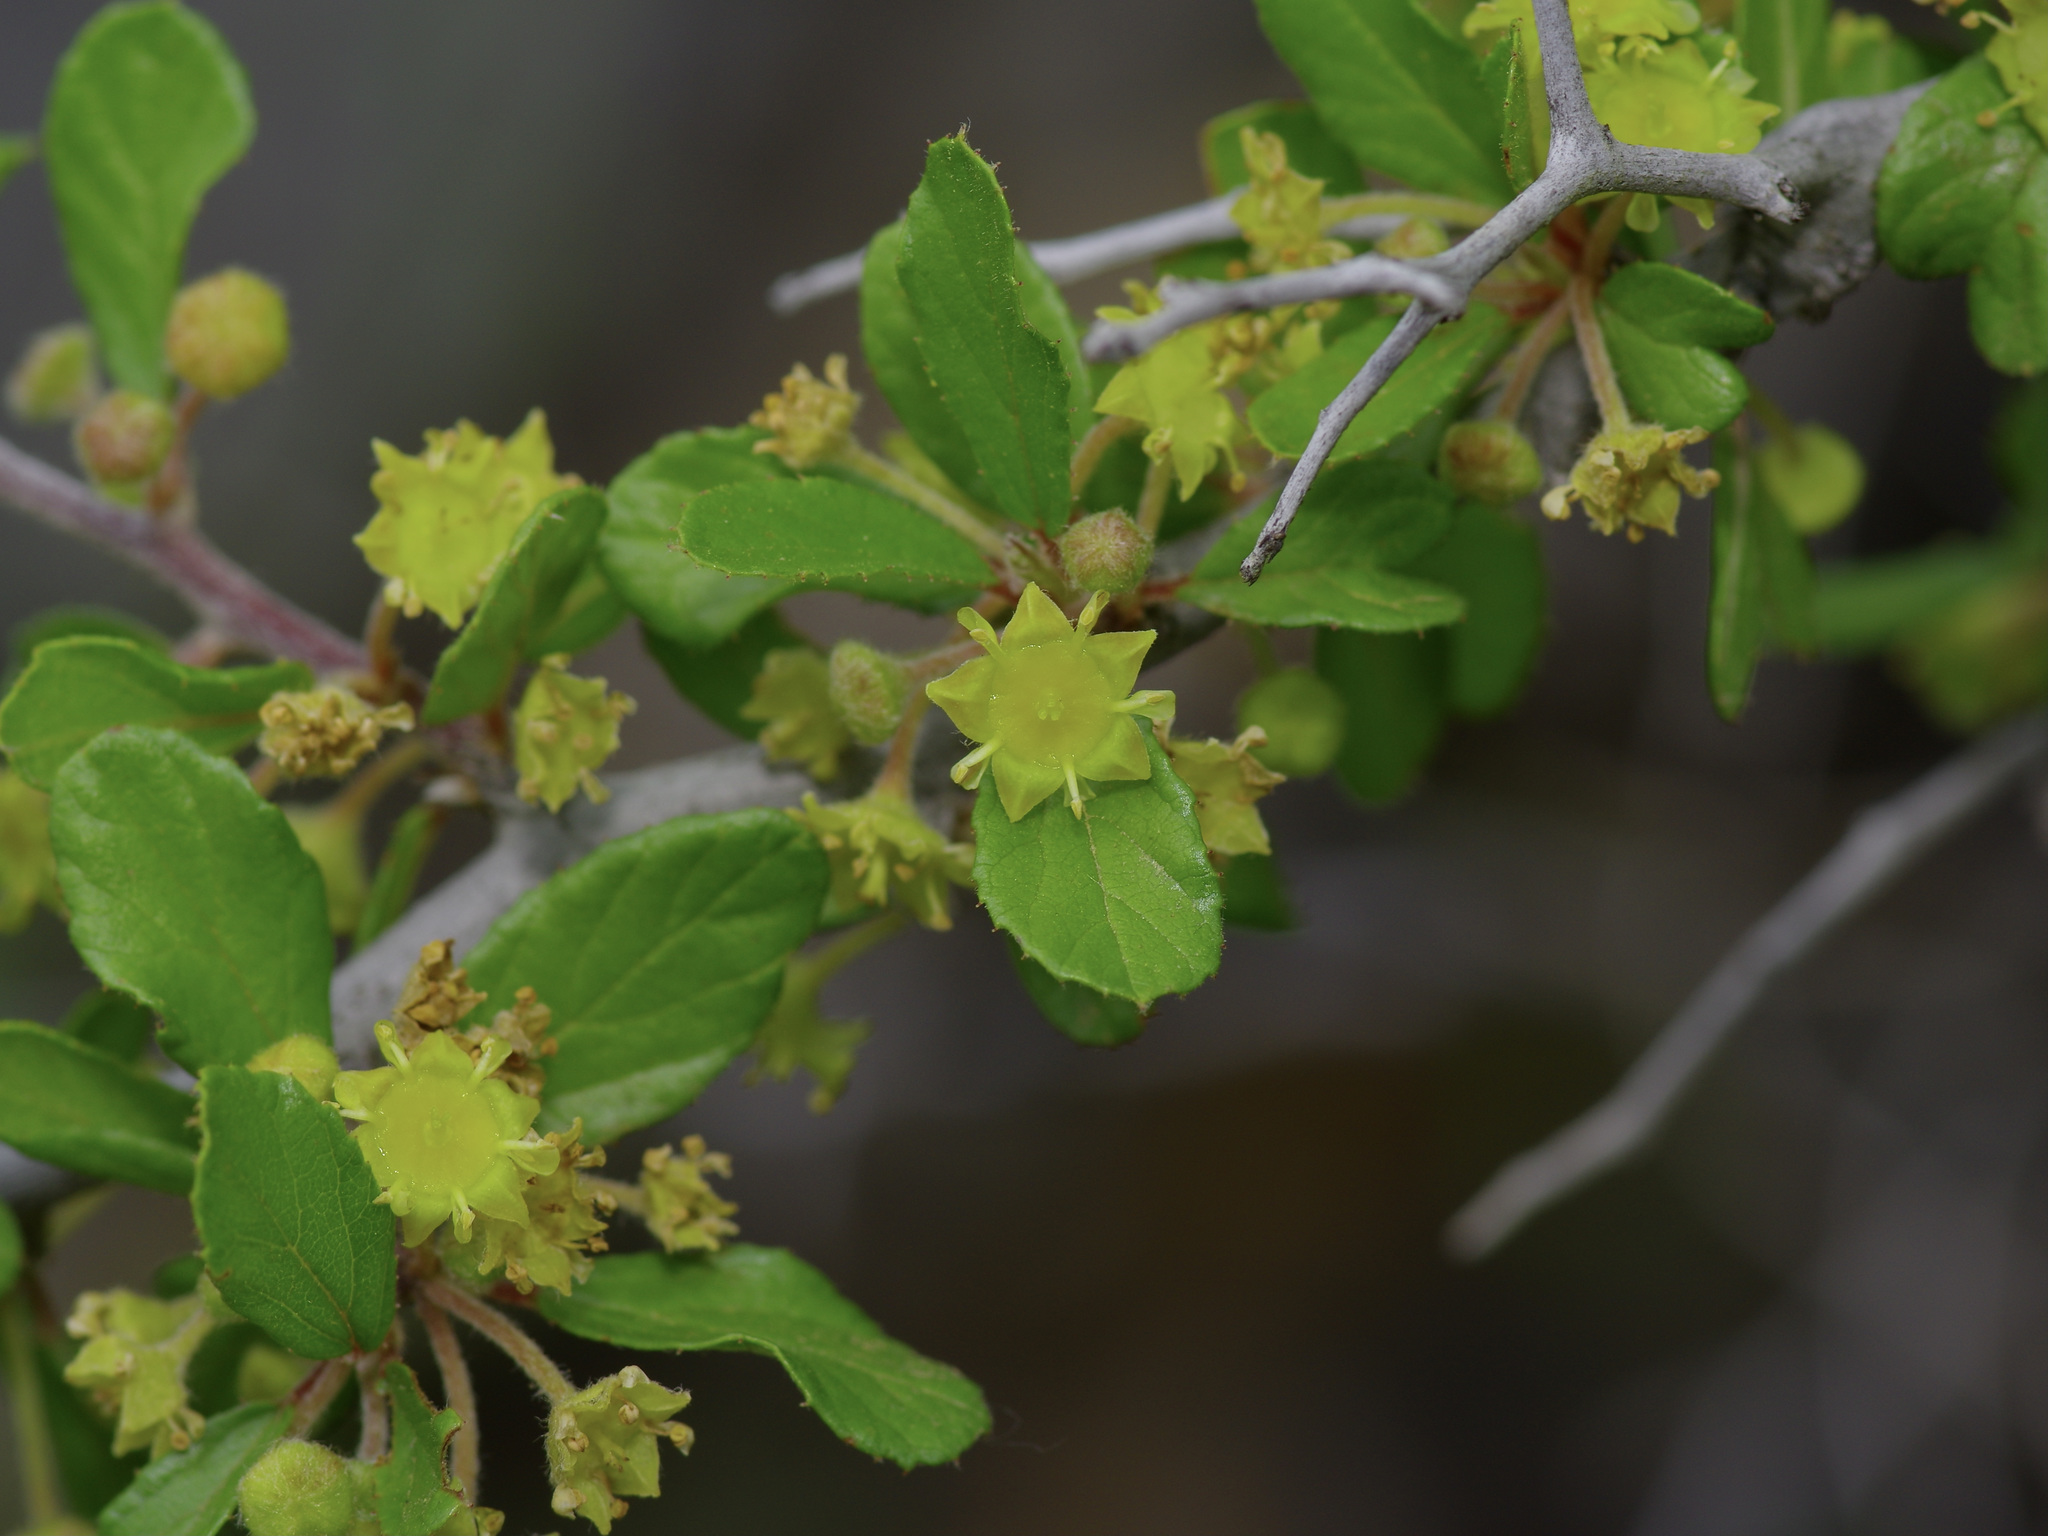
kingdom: Plantae
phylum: Tracheophyta
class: Magnoliopsida
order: Rosales
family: Rhamnaceae
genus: Colubrina
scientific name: Colubrina texensis
